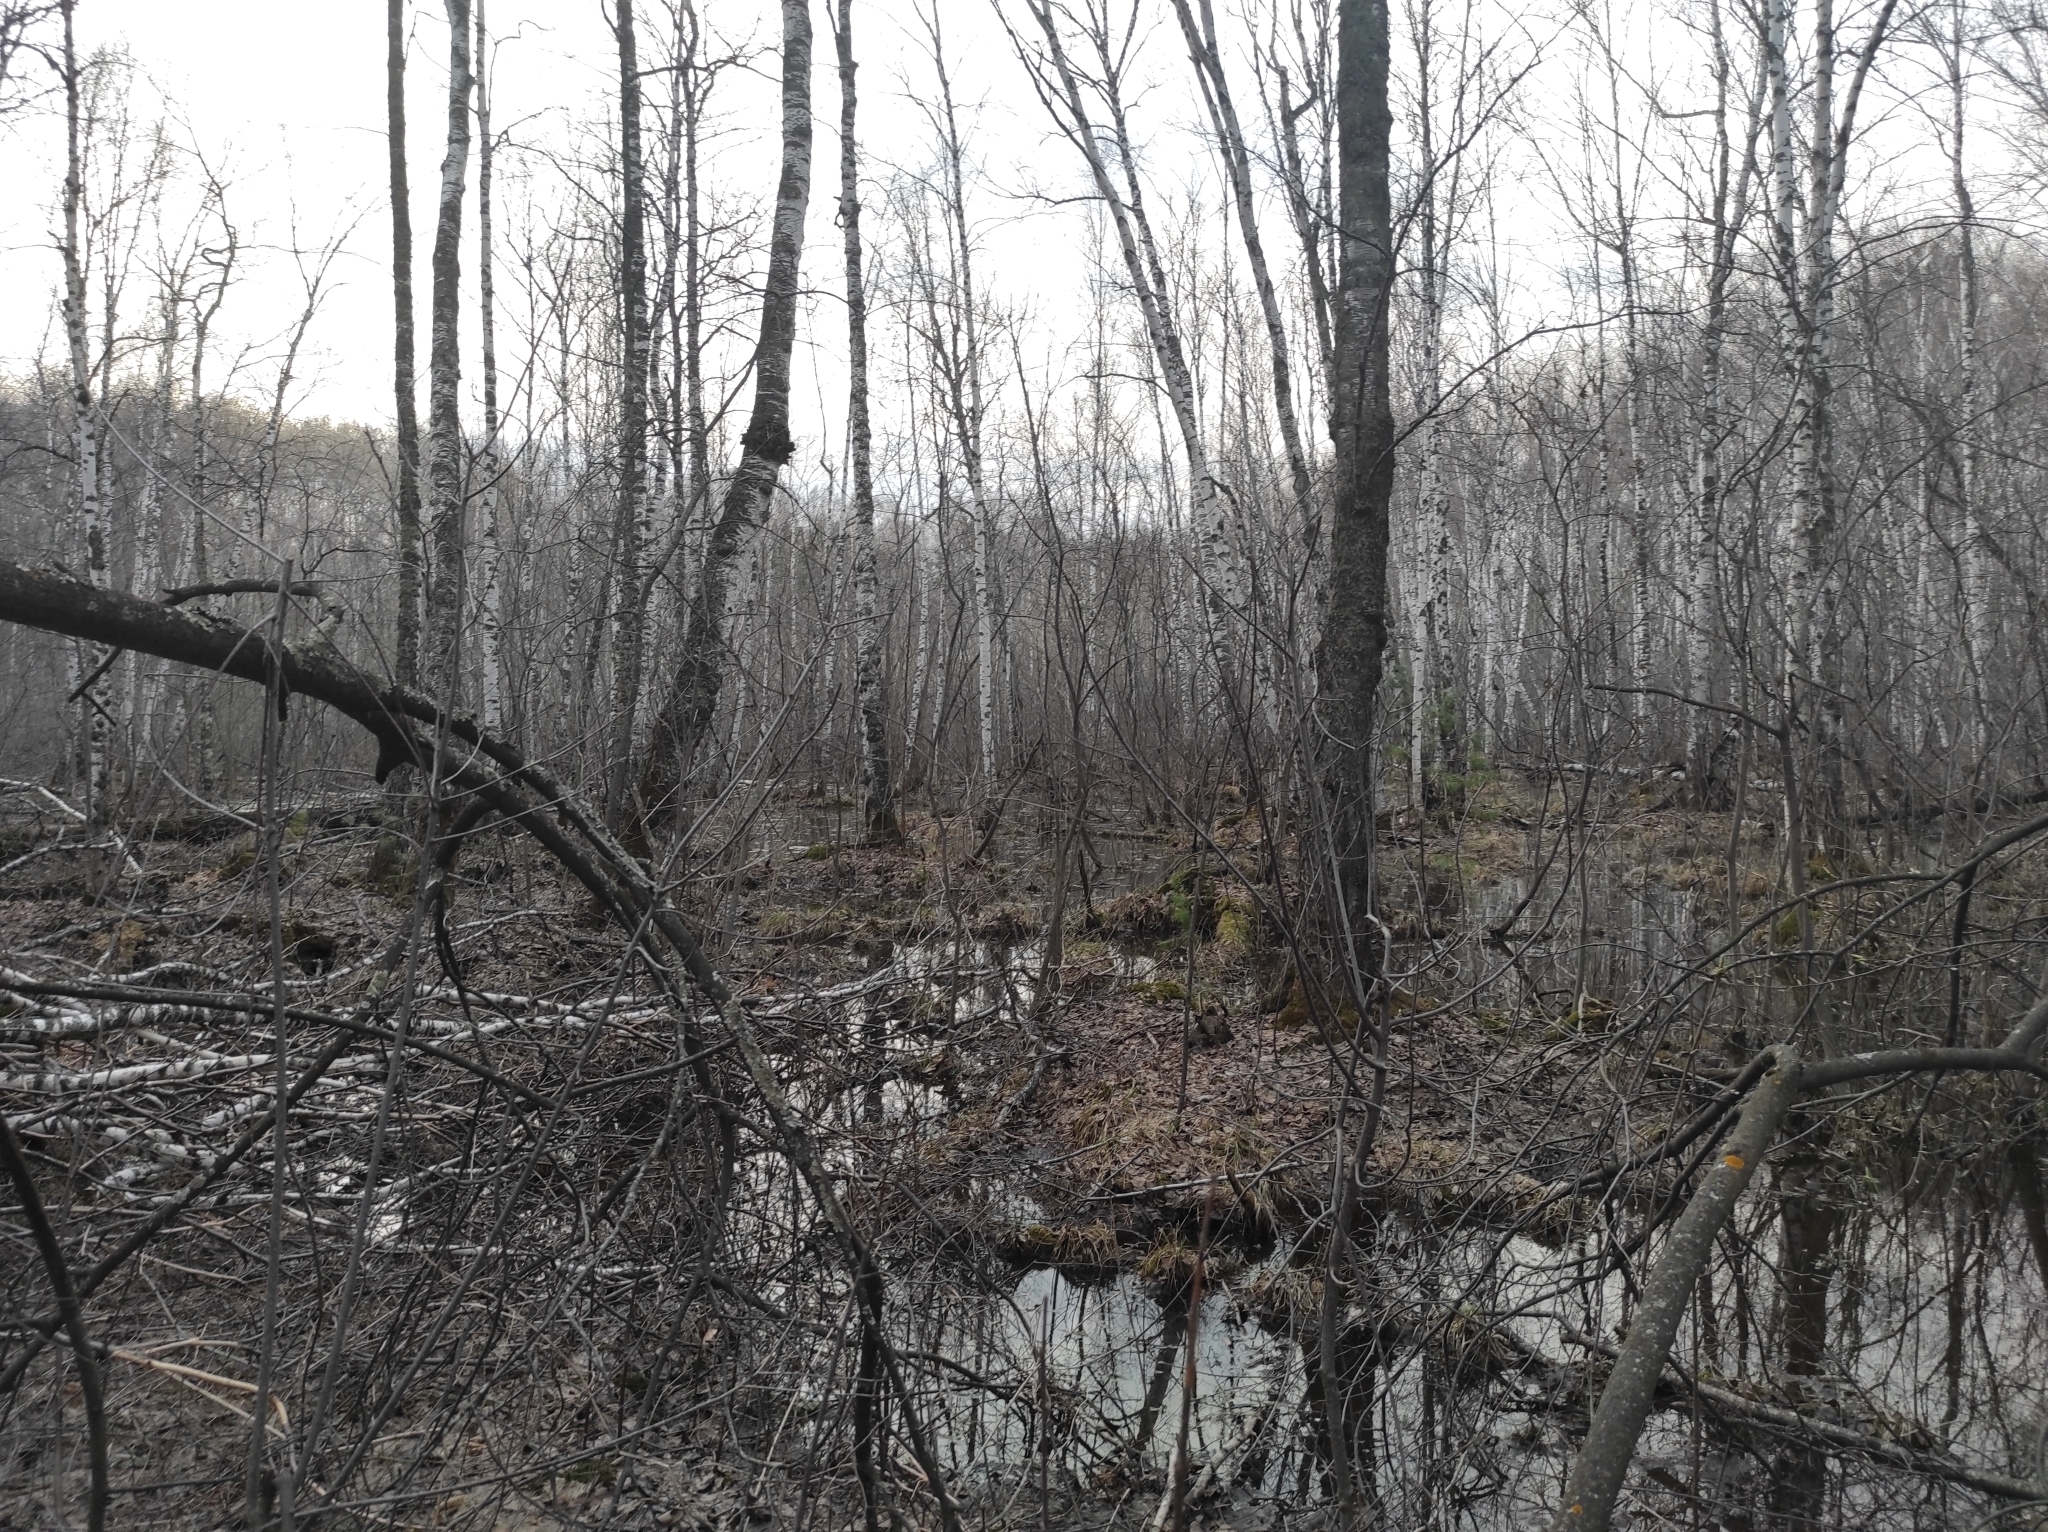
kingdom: Plantae
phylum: Tracheophyta
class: Magnoliopsida
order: Fagales
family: Betulaceae
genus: Betula
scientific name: Betula pubescens
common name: Downy birch
